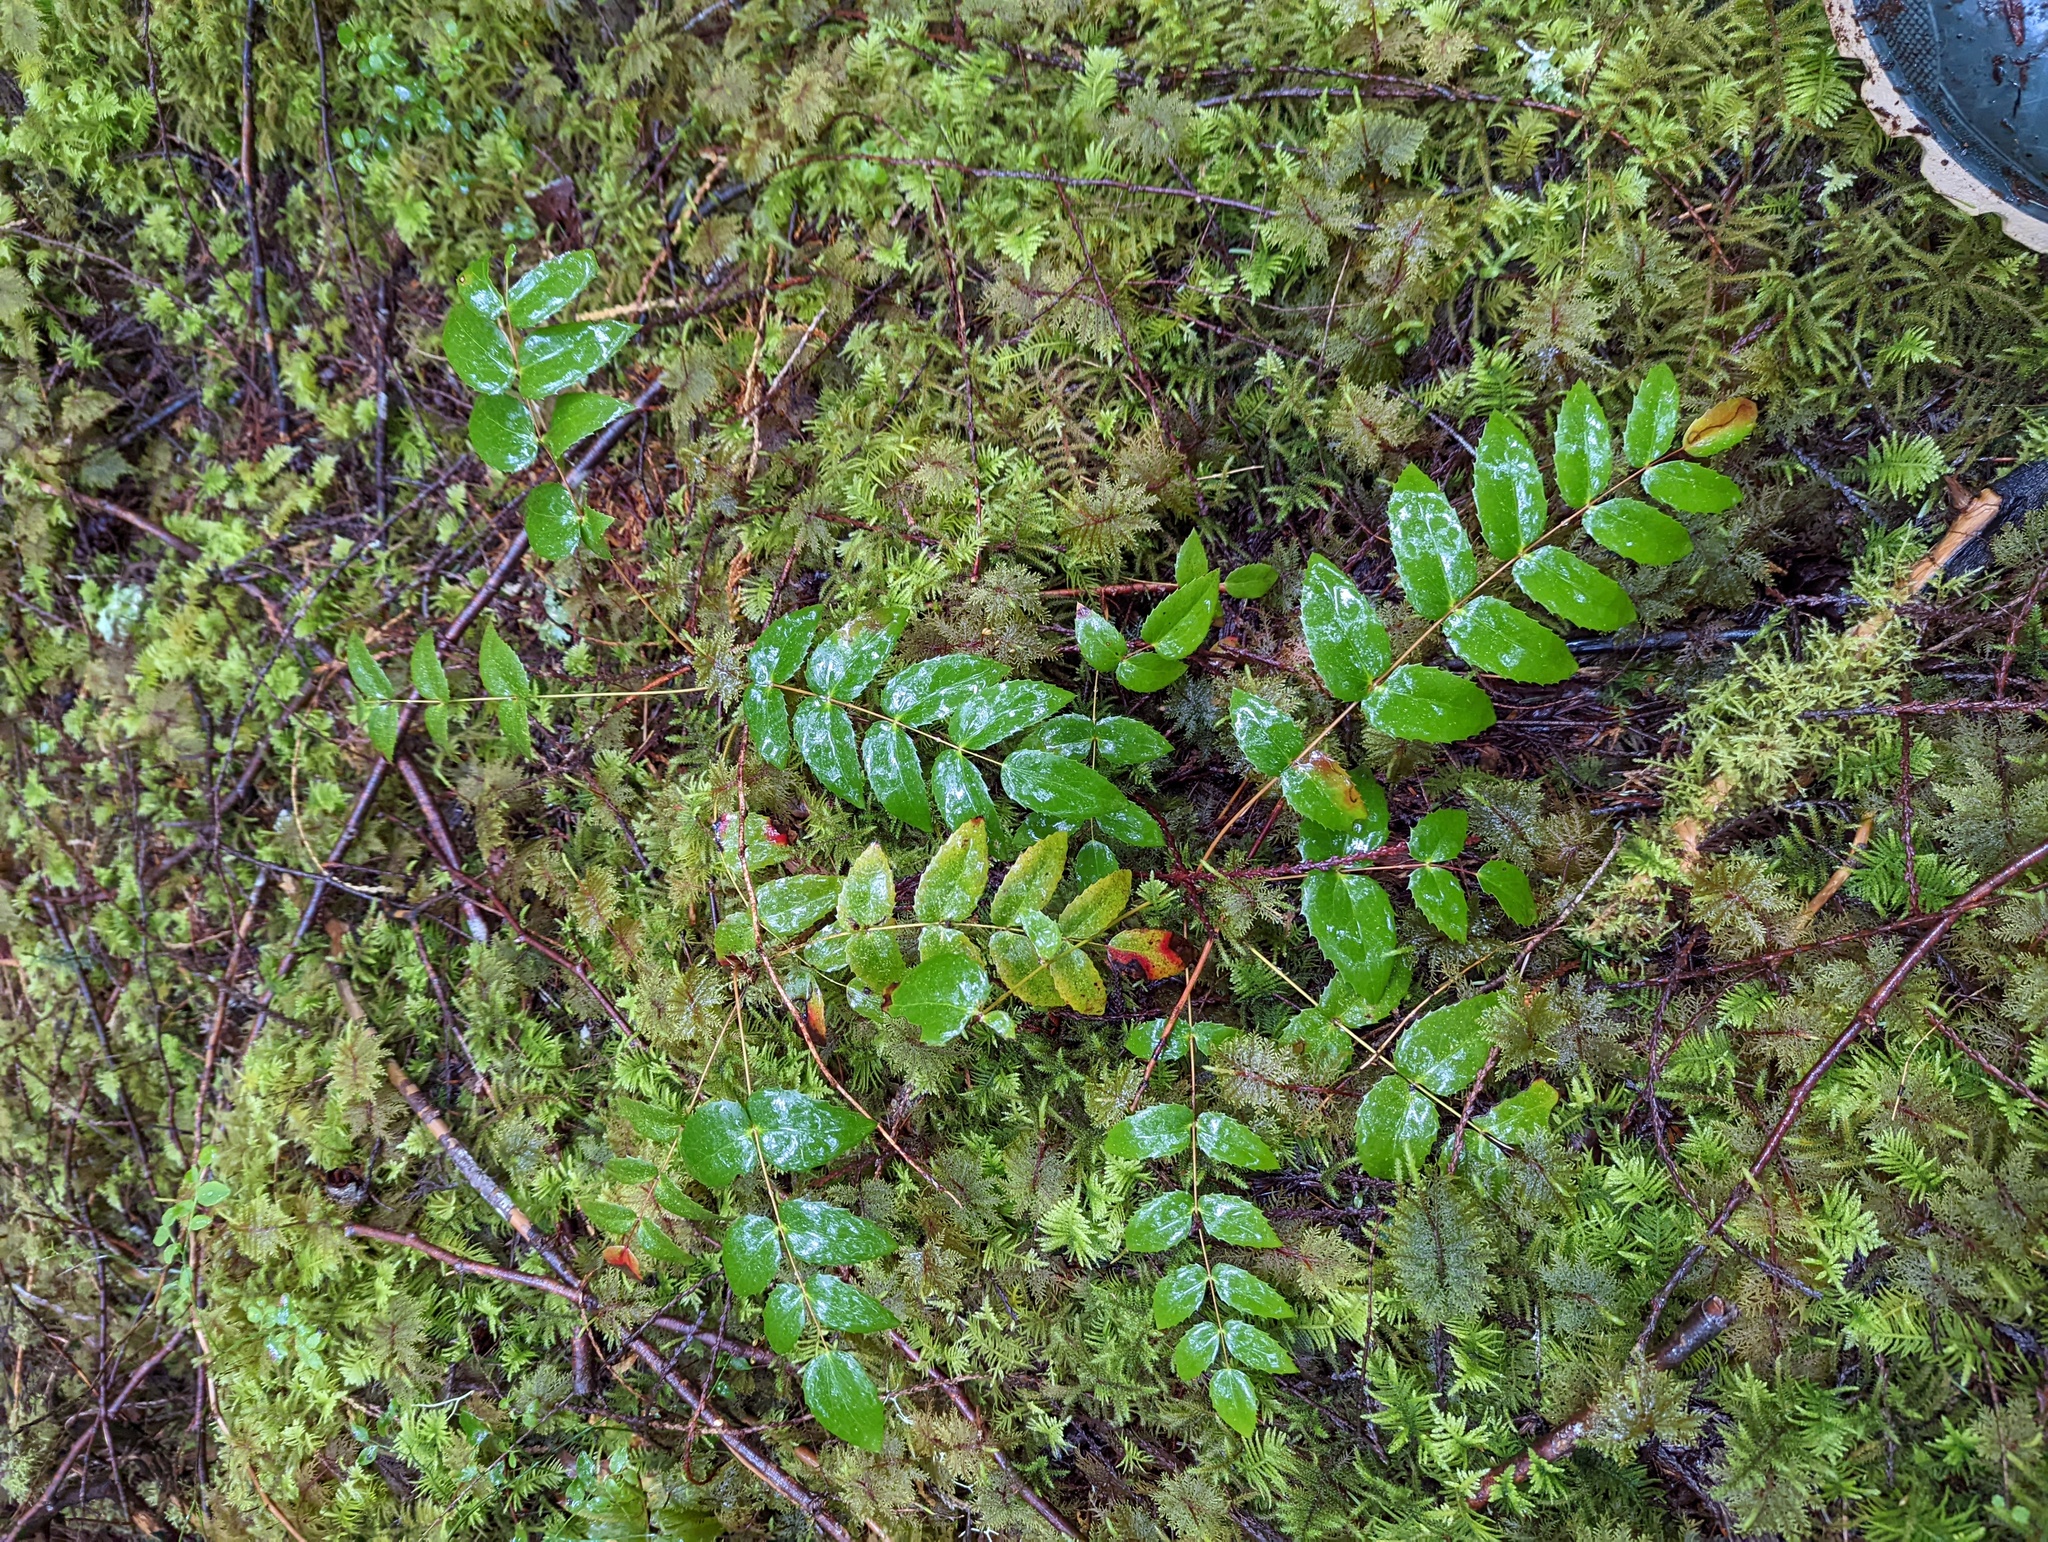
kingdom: Plantae
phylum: Tracheophyta
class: Magnoliopsida
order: Ranunculales
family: Berberidaceae
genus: Mahonia
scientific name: Mahonia nervosa
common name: Cascade oregon-grape
